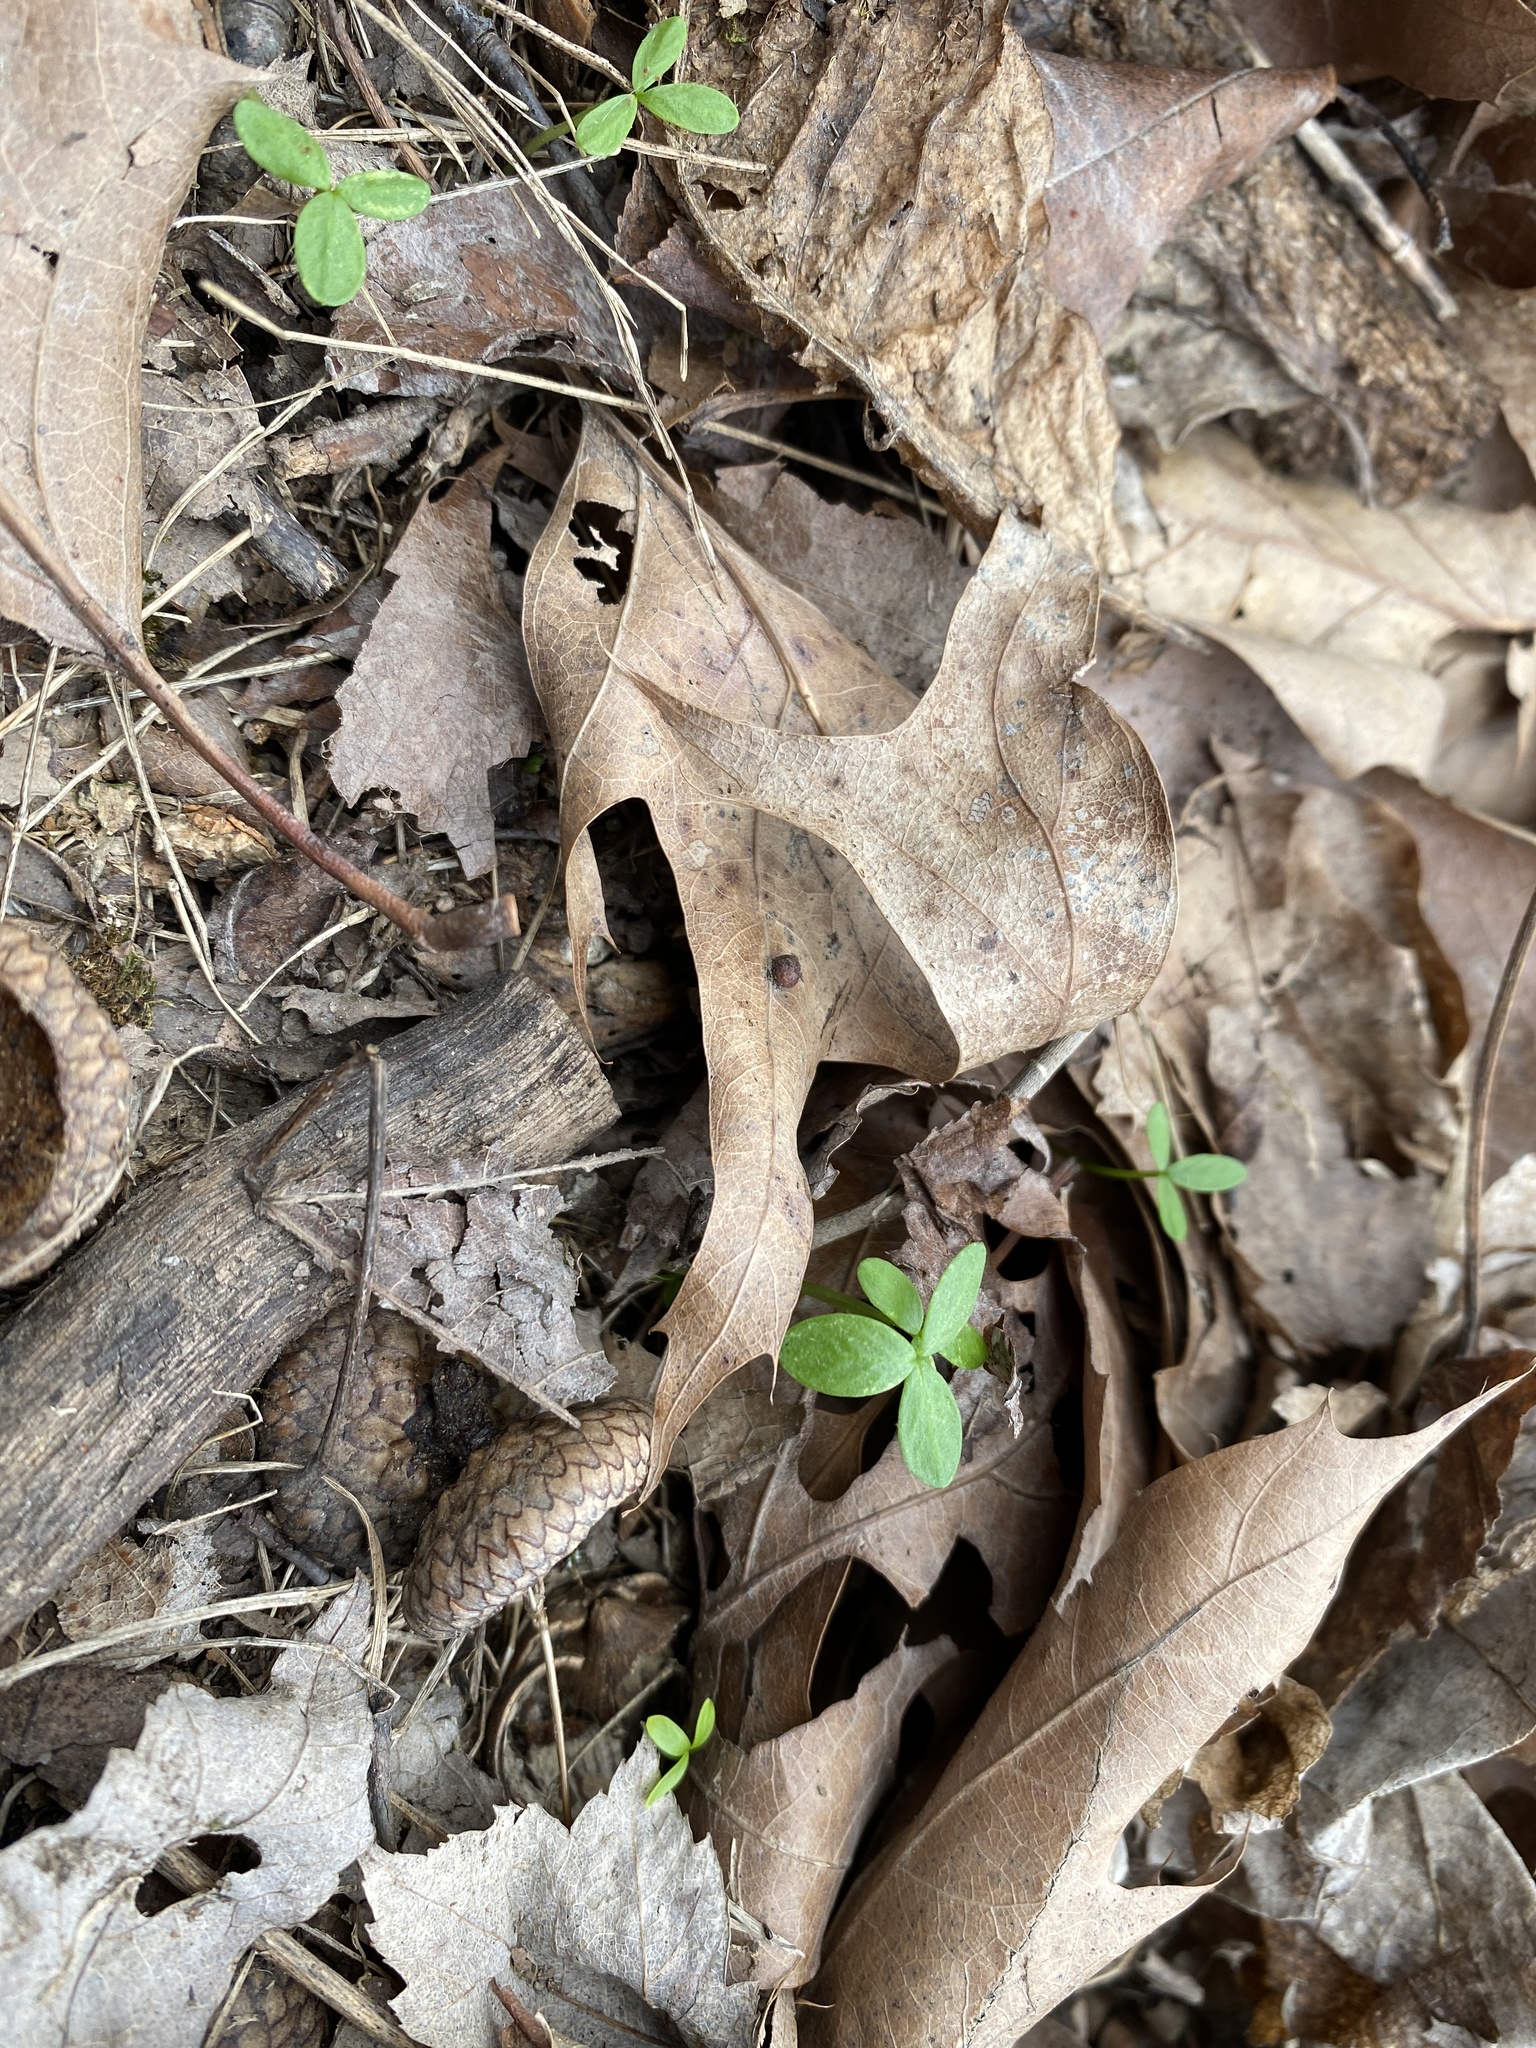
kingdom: Plantae
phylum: Tracheophyta
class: Magnoliopsida
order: Brassicales
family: Limnanthaceae
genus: Floerkea
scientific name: Floerkea proserpinacoides
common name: False mermaid
